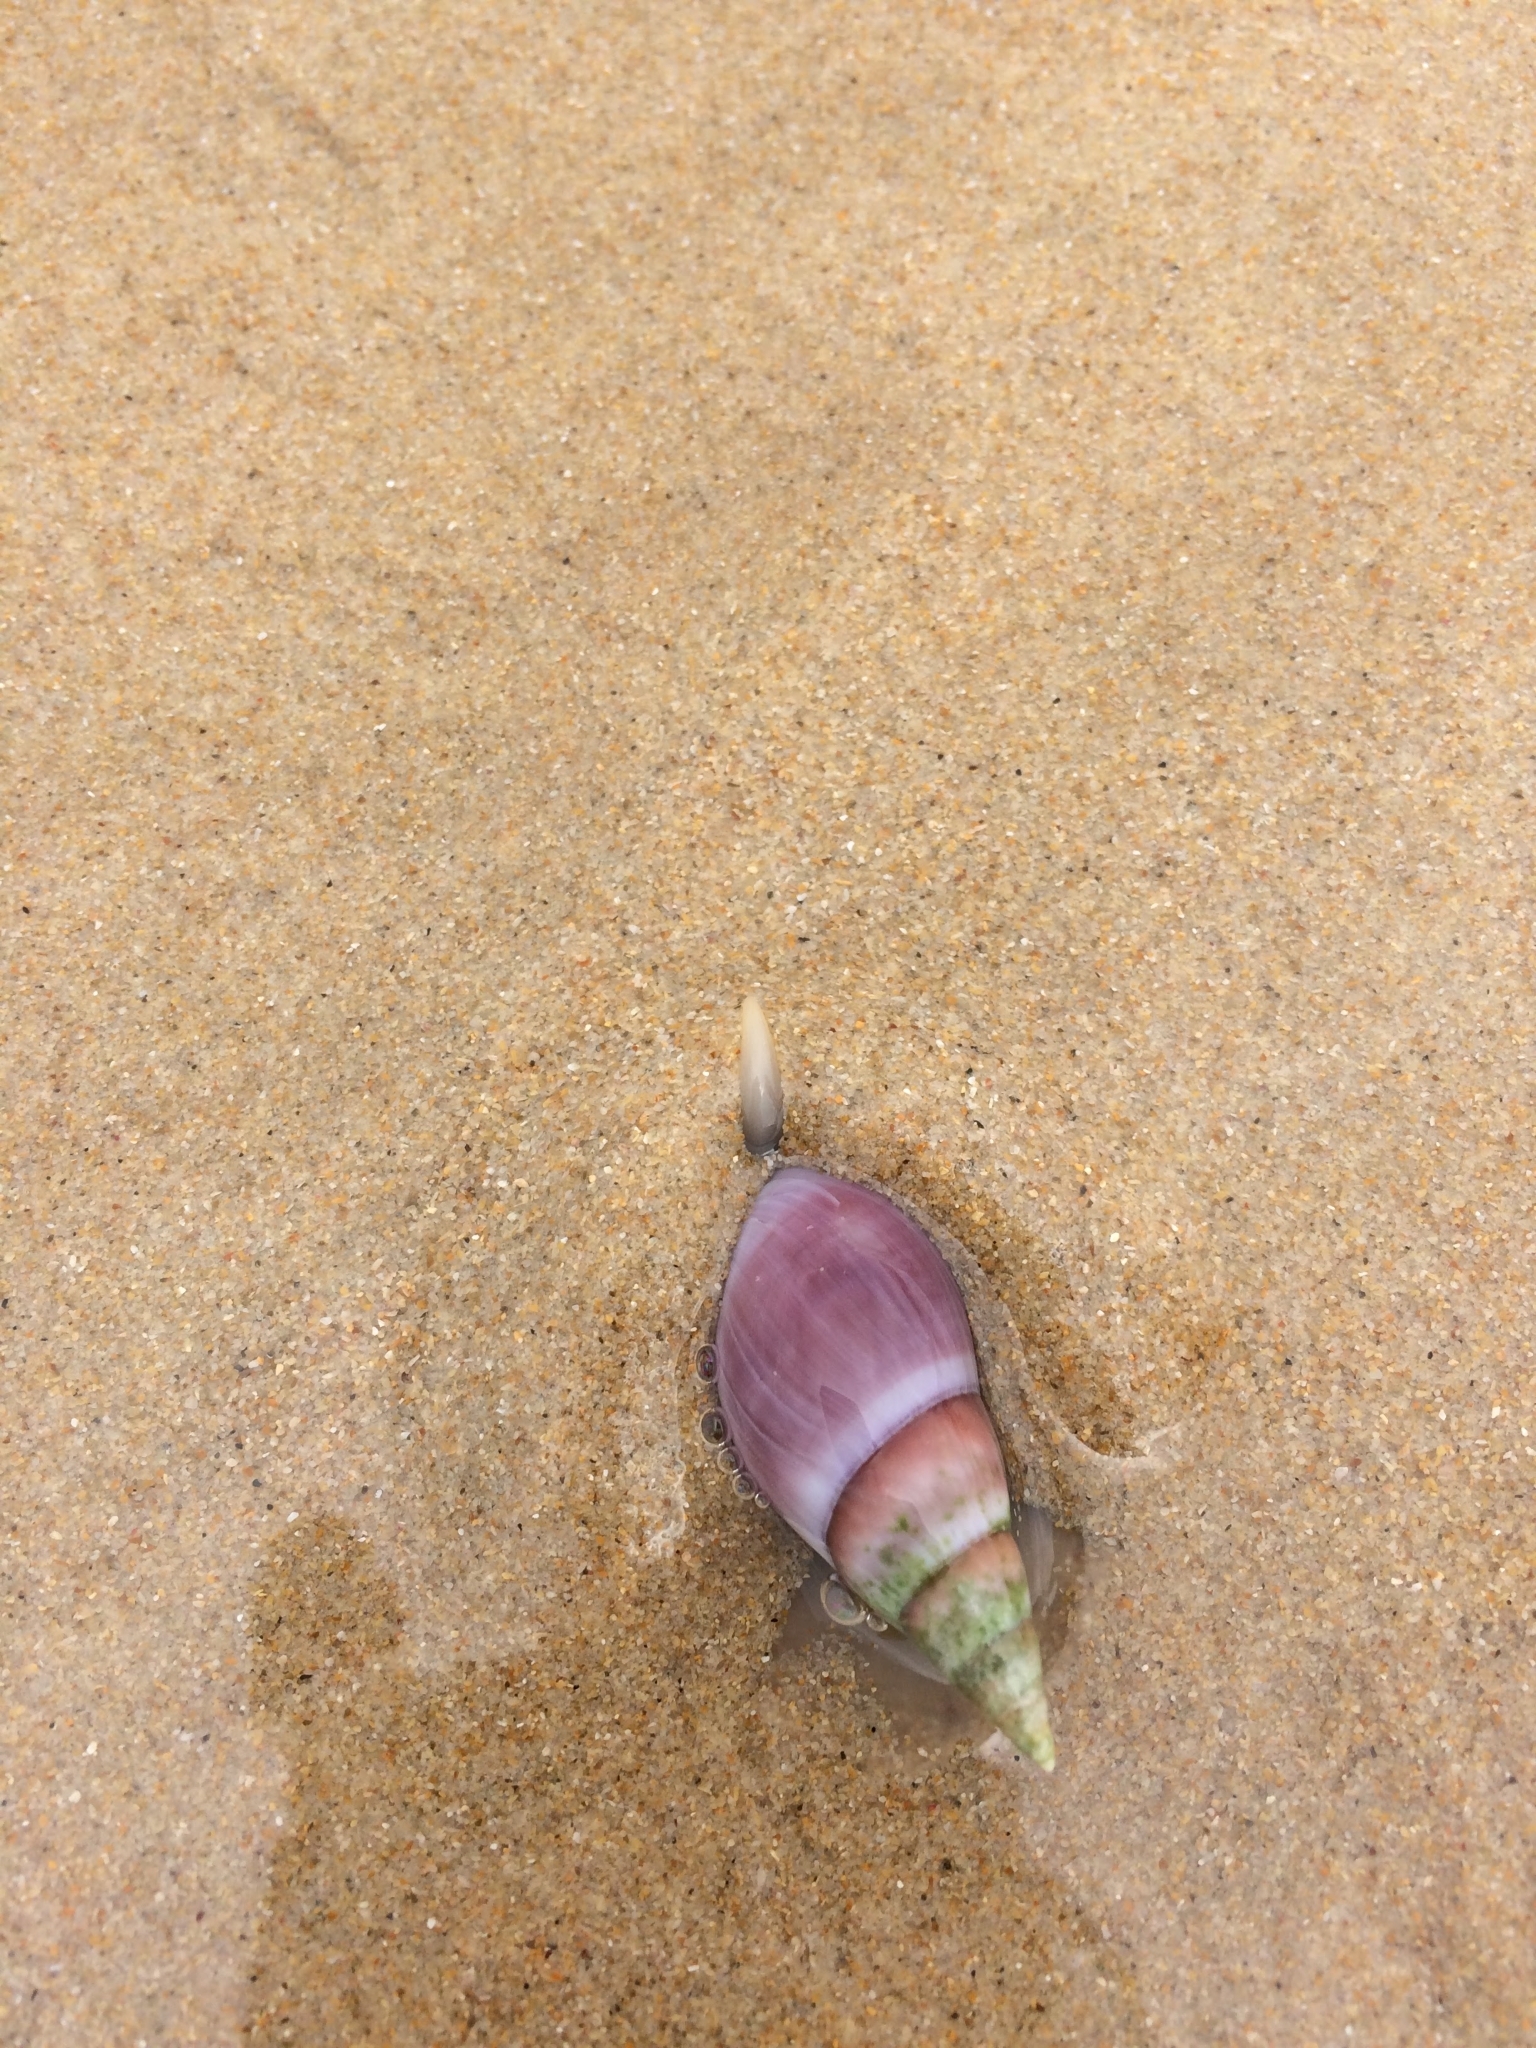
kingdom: Animalia
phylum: Mollusca
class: Gastropoda
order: Neogastropoda
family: Nassariidae
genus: Bullia
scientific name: Bullia rhodostoma
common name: Smooth plough shell
